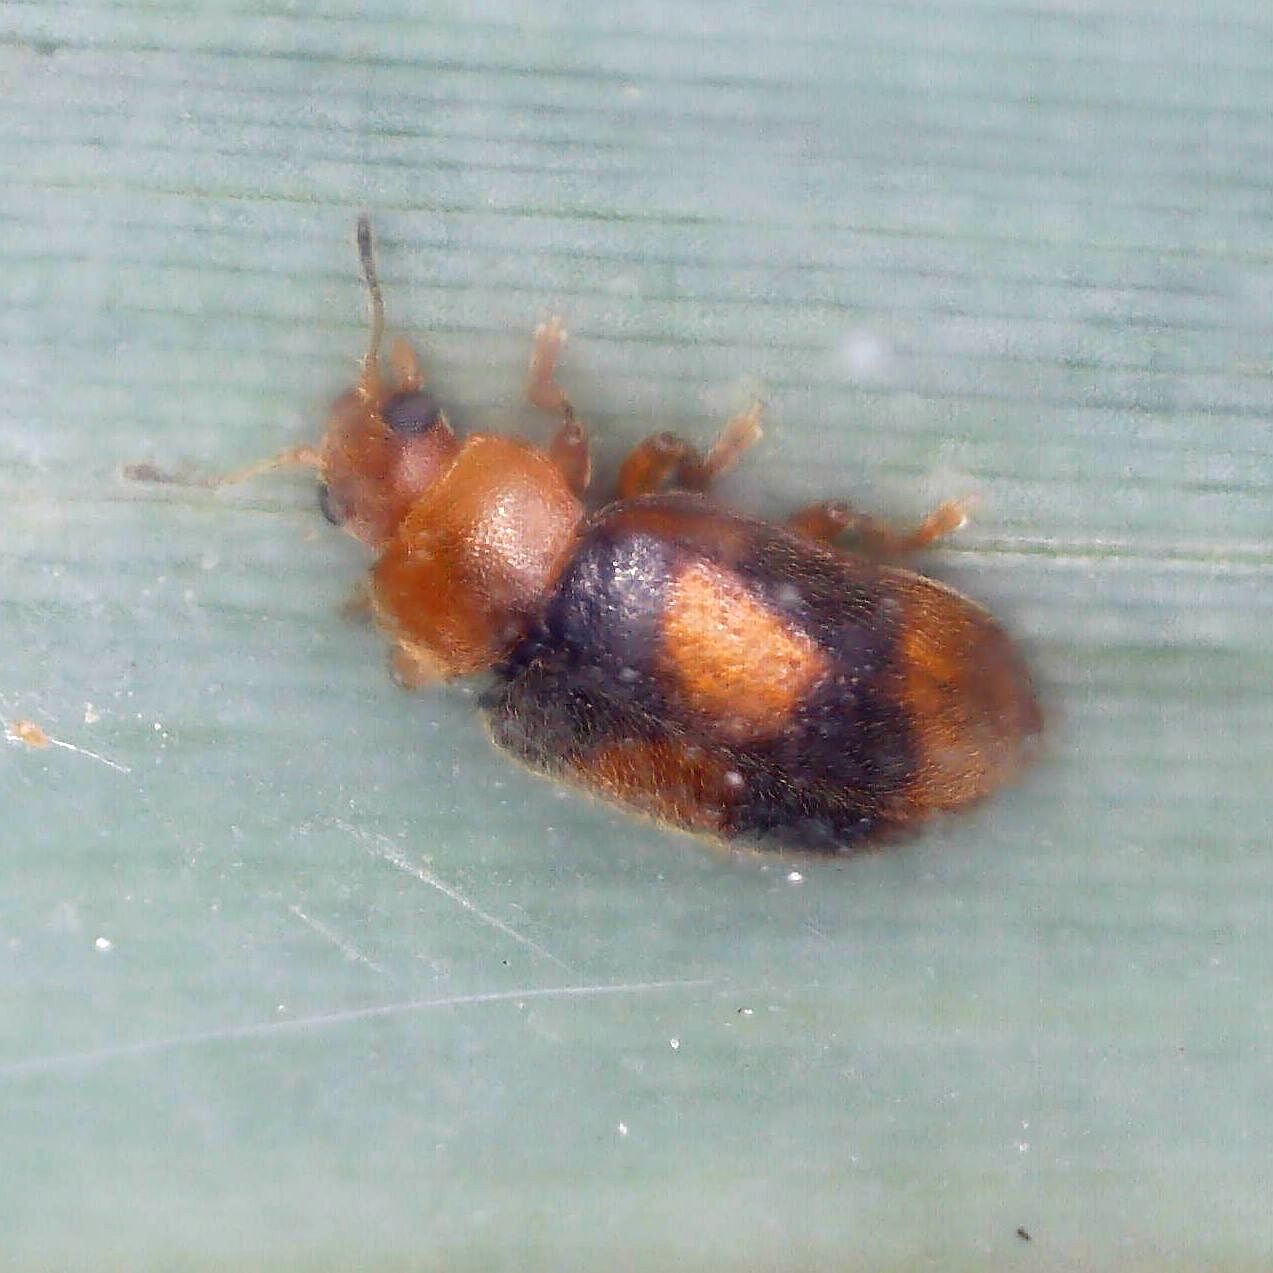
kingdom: Animalia
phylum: Arthropoda
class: Insecta
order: Coleoptera
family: Coccinellidae
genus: Coccidula
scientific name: Coccidula scutellata
